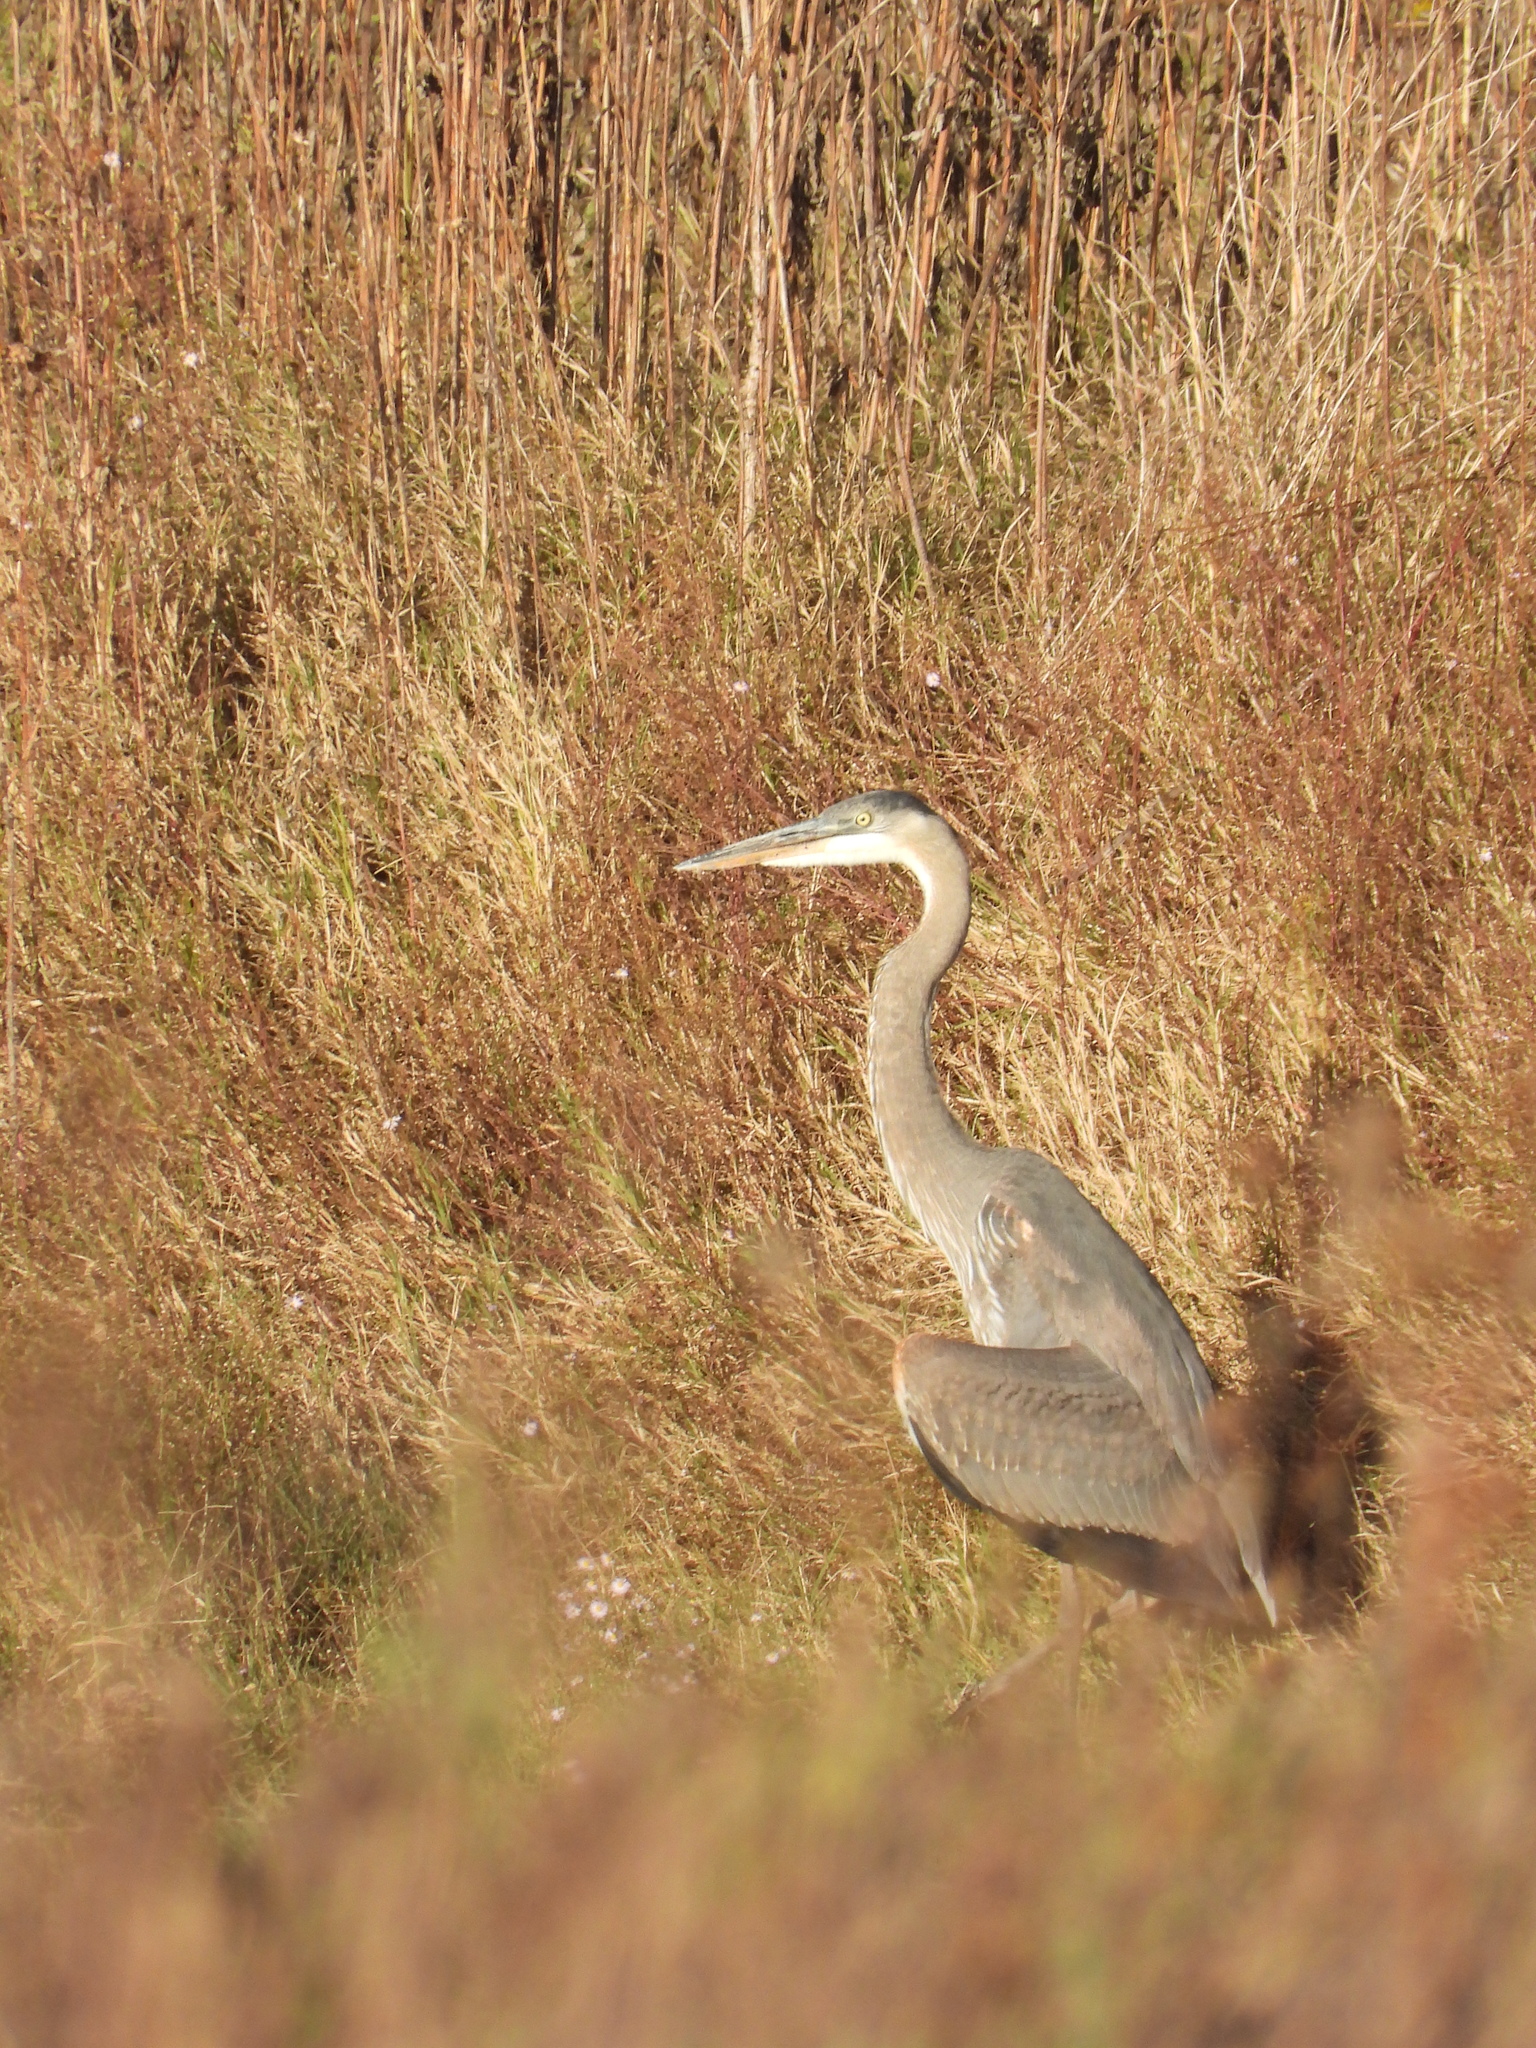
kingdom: Animalia
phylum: Chordata
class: Aves
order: Pelecaniformes
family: Ardeidae
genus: Ardea
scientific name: Ardea herodias
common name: Great blue heron
